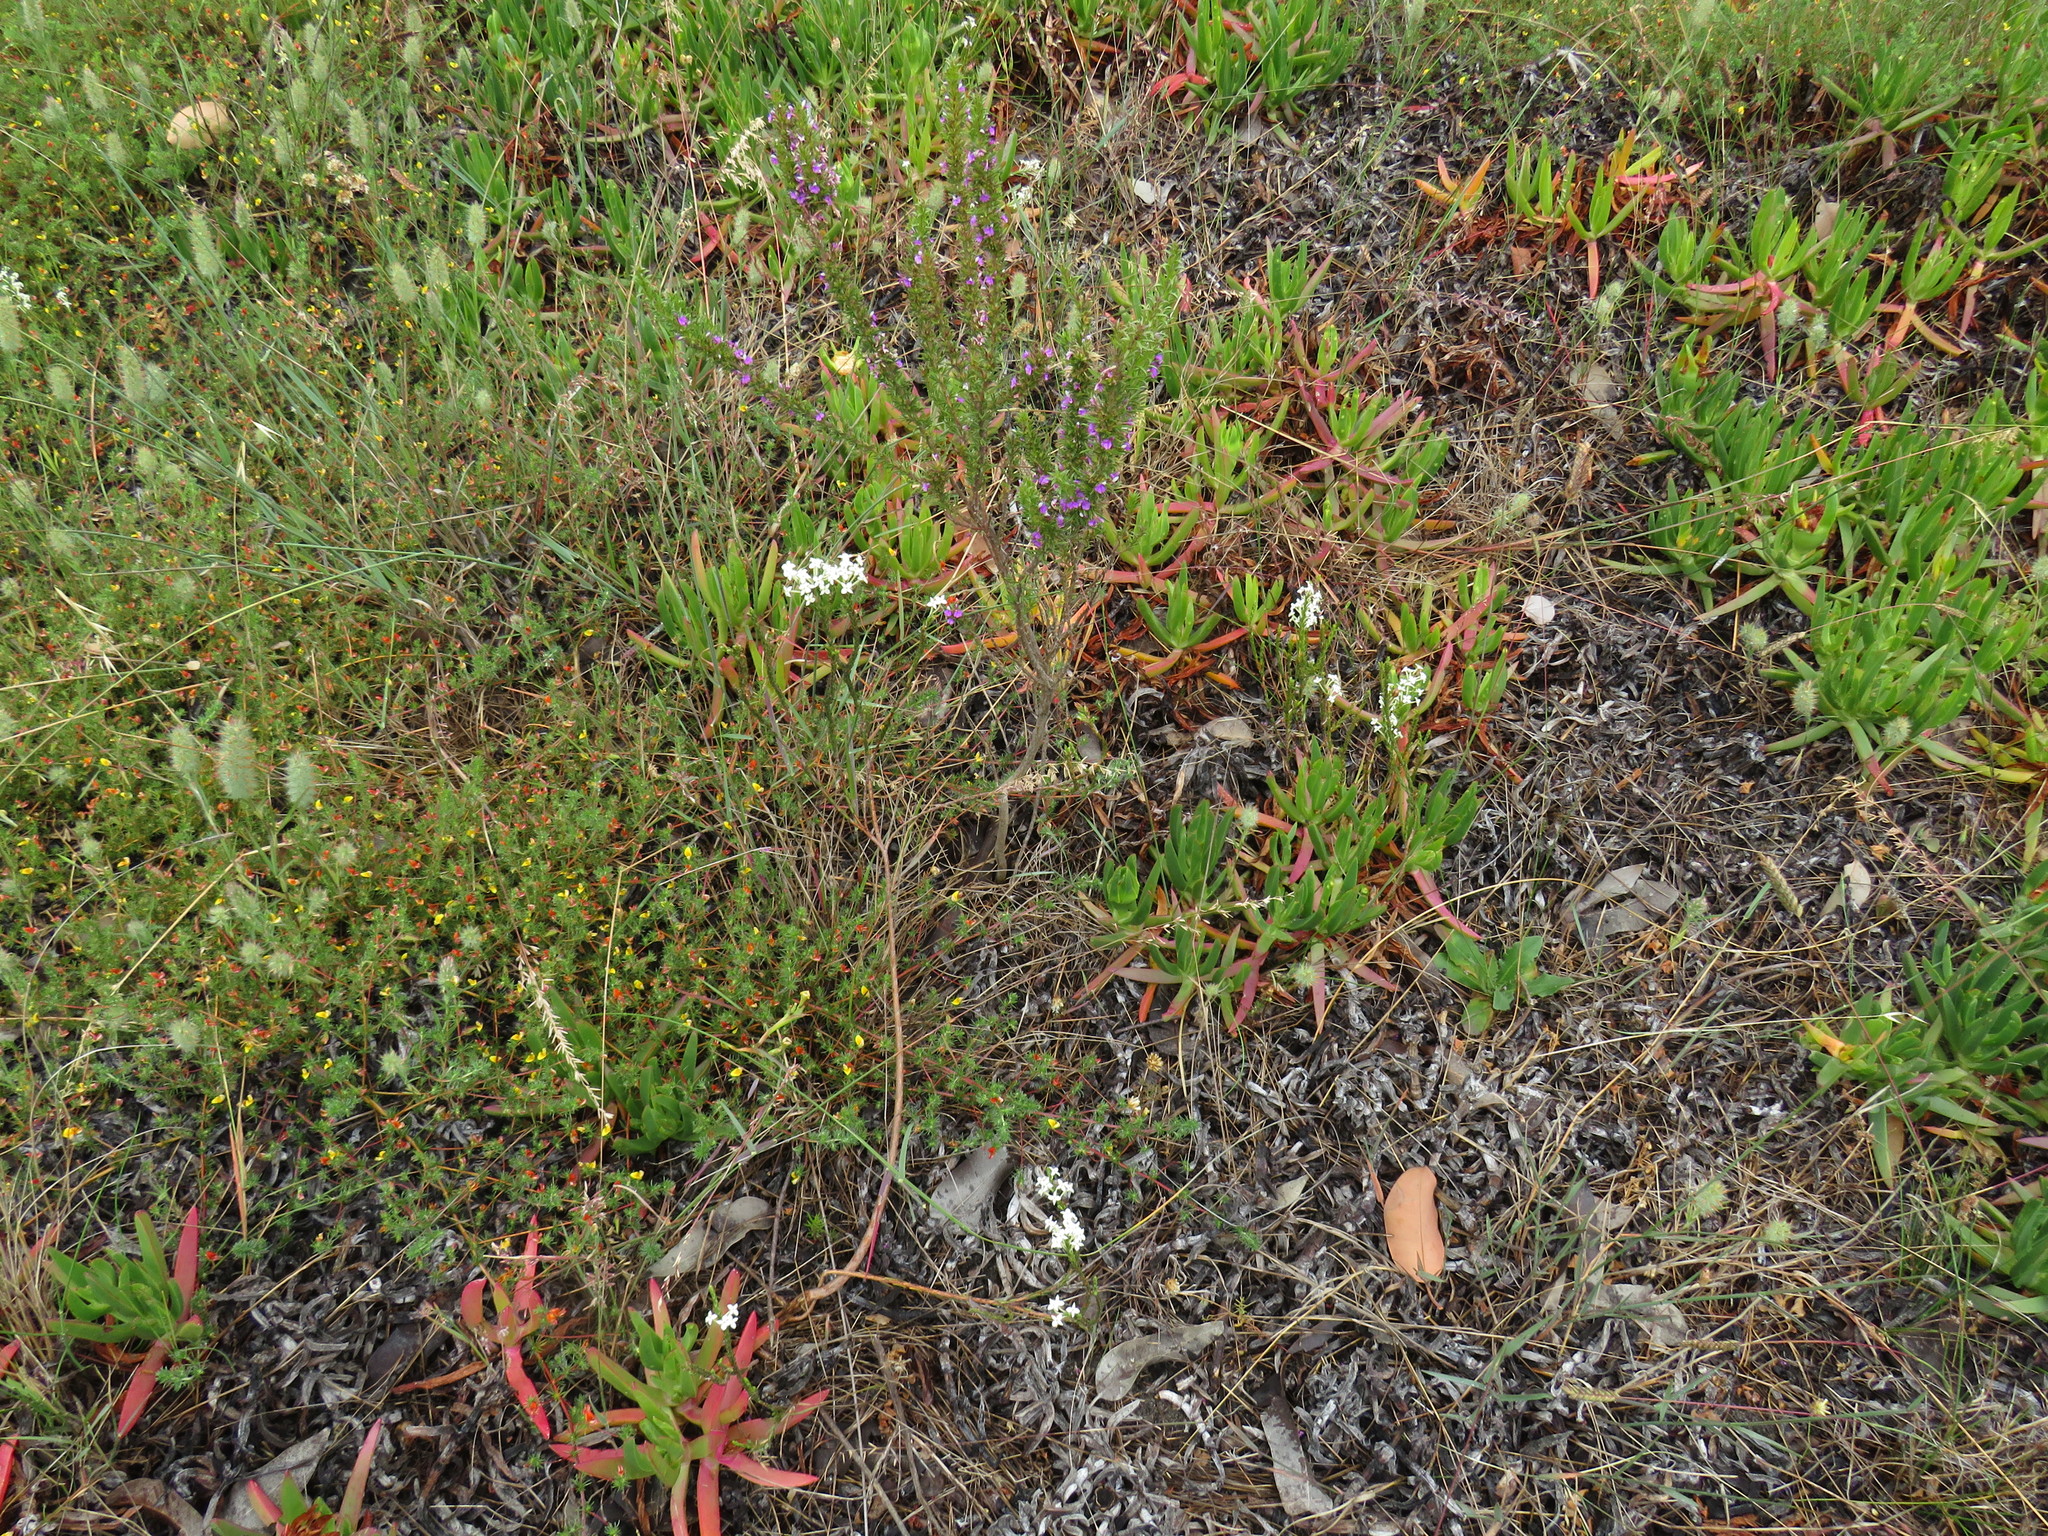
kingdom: Plantae
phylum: Tracheophyta
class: Magnoliopsida
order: Fabales
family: Polygalaceae
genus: Muraltia
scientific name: Muraltia heisteria
